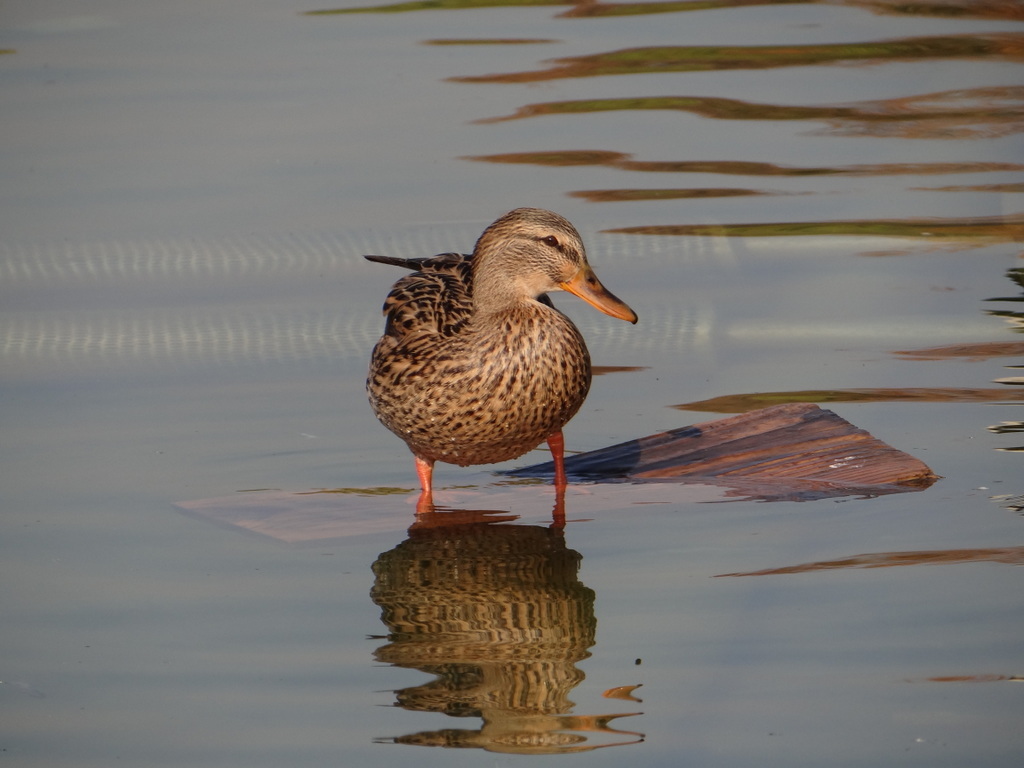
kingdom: Animalia
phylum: Chordata
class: Aves
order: Anseriformes
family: Anatidae
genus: Anas
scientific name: Anas platyrhynchos
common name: Mallard
